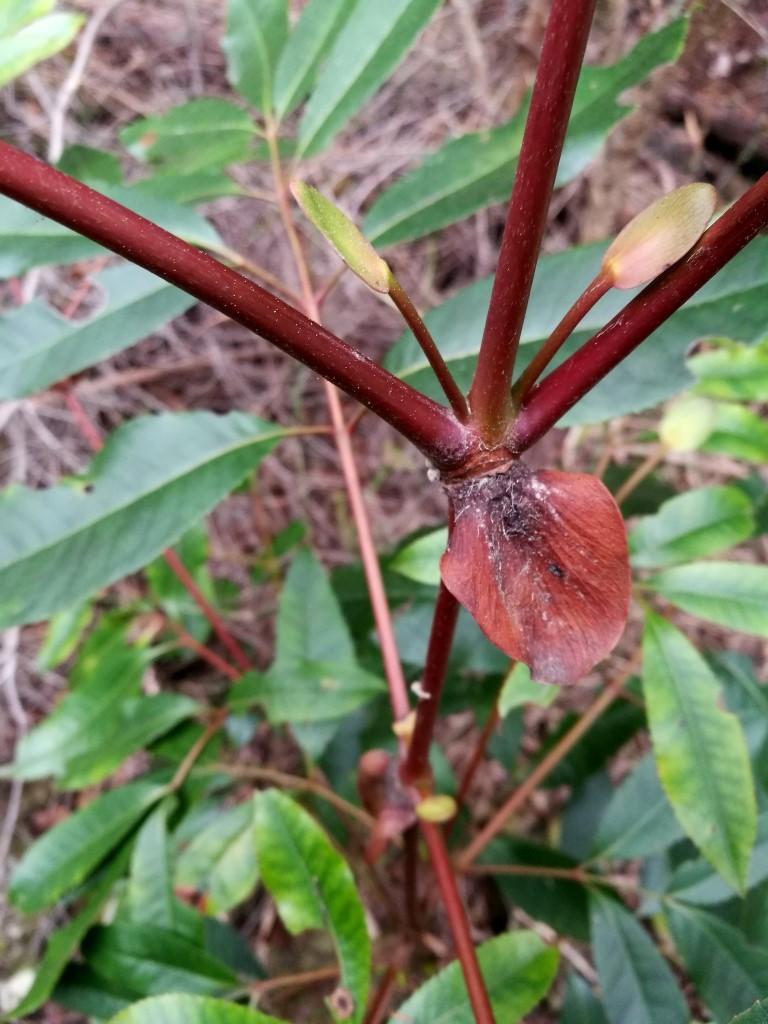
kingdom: Plantae
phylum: Tracheophyta
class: Magnoliopsida
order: Oxalidales
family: Cunoniaceae
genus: Cunonia
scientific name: Cunonia capensis
